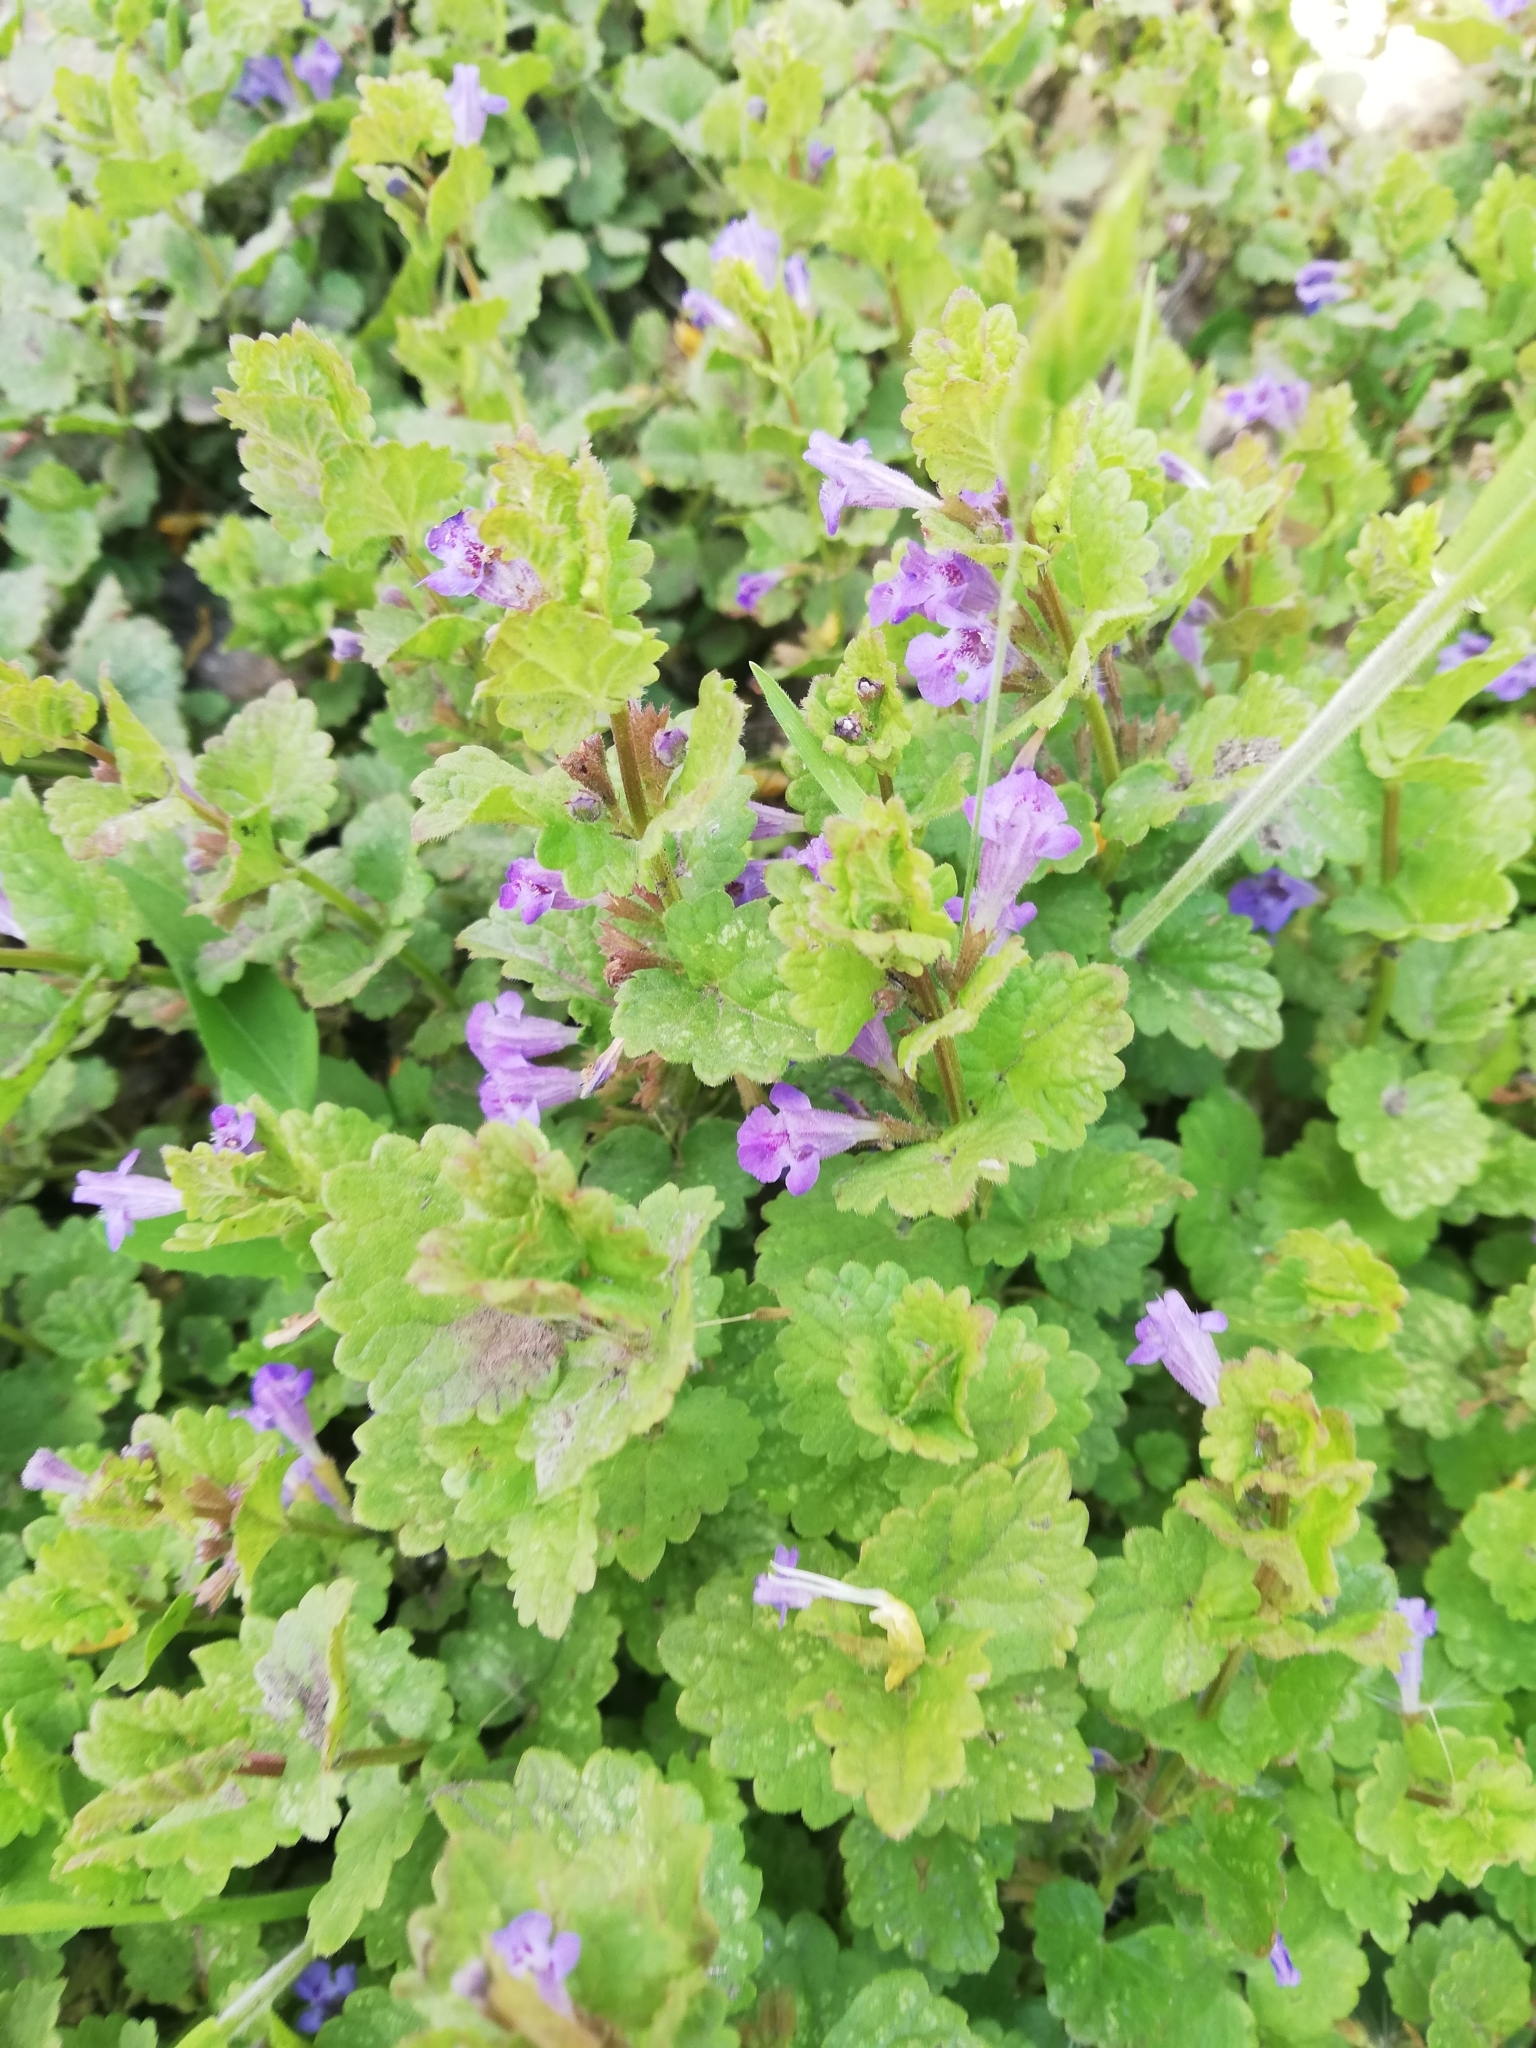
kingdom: Plantae
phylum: Tracheophyta
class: Magnoliopsida
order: Lamiales
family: Lamiaceae
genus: Glechoma
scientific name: Glechoma hederacea
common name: Ground ivy
